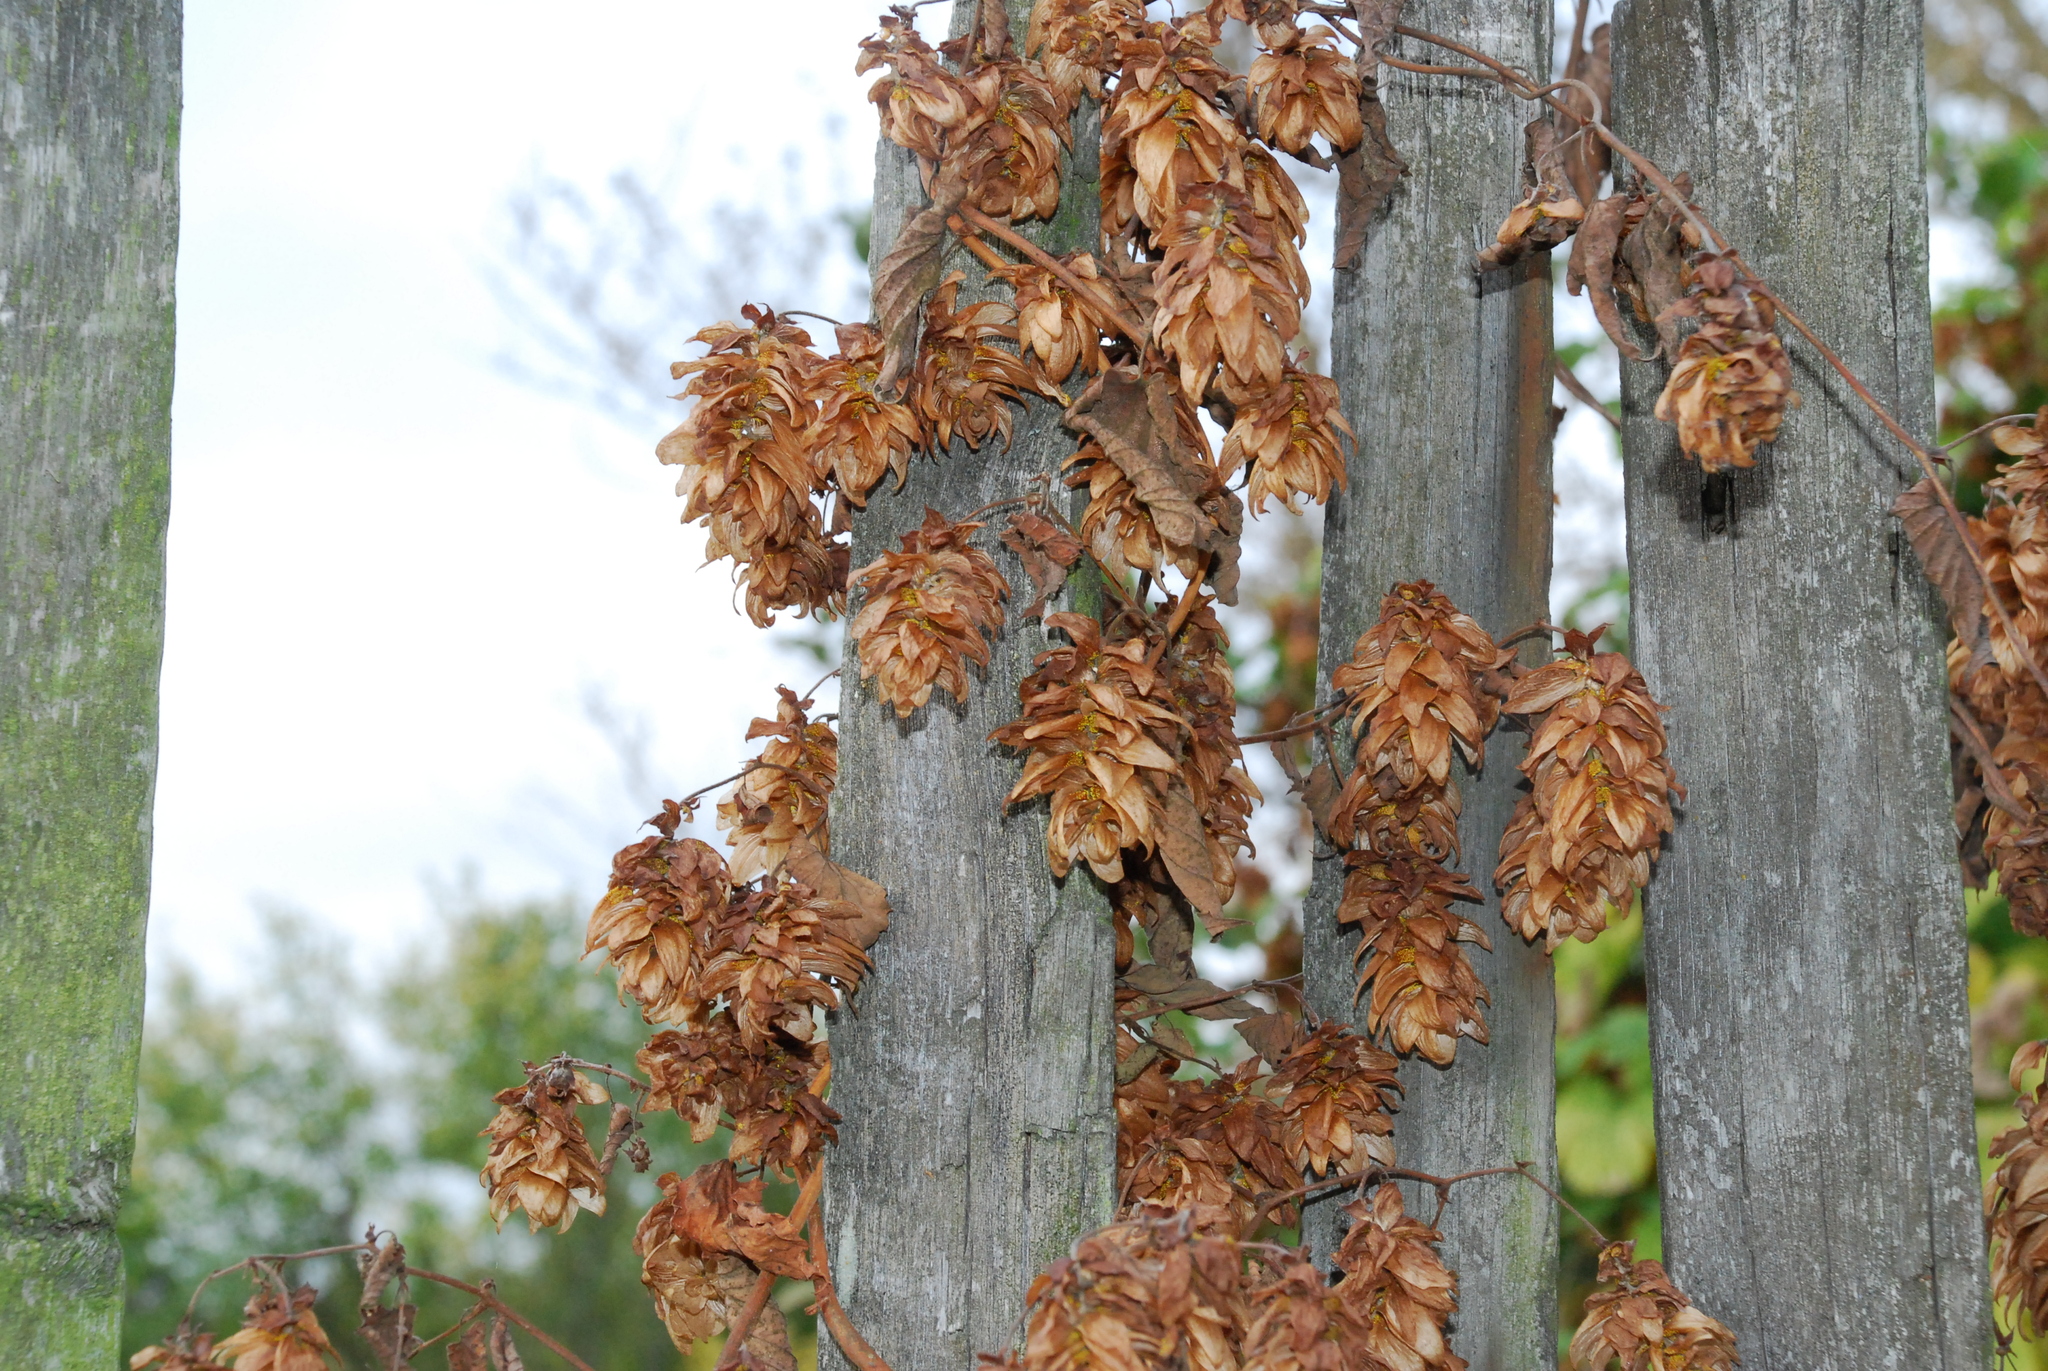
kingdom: Plantae
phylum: Tracheophyta
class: Magnoliopsida
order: Rosales
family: Cannabaceae
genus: Humulus
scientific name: Humulus lupulus
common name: Hop
